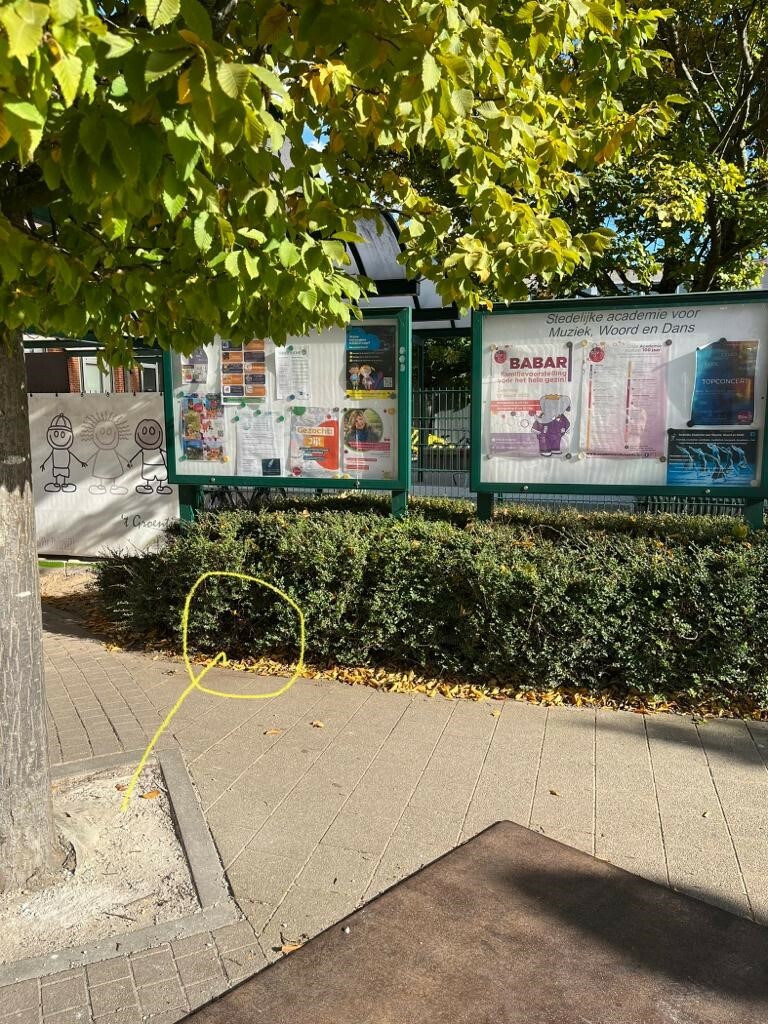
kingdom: Animalia
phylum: Arthropoda
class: Insecta
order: Hymenoptera
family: Vespidae
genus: Vespa
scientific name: Vespa velutina
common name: Asian hornet
